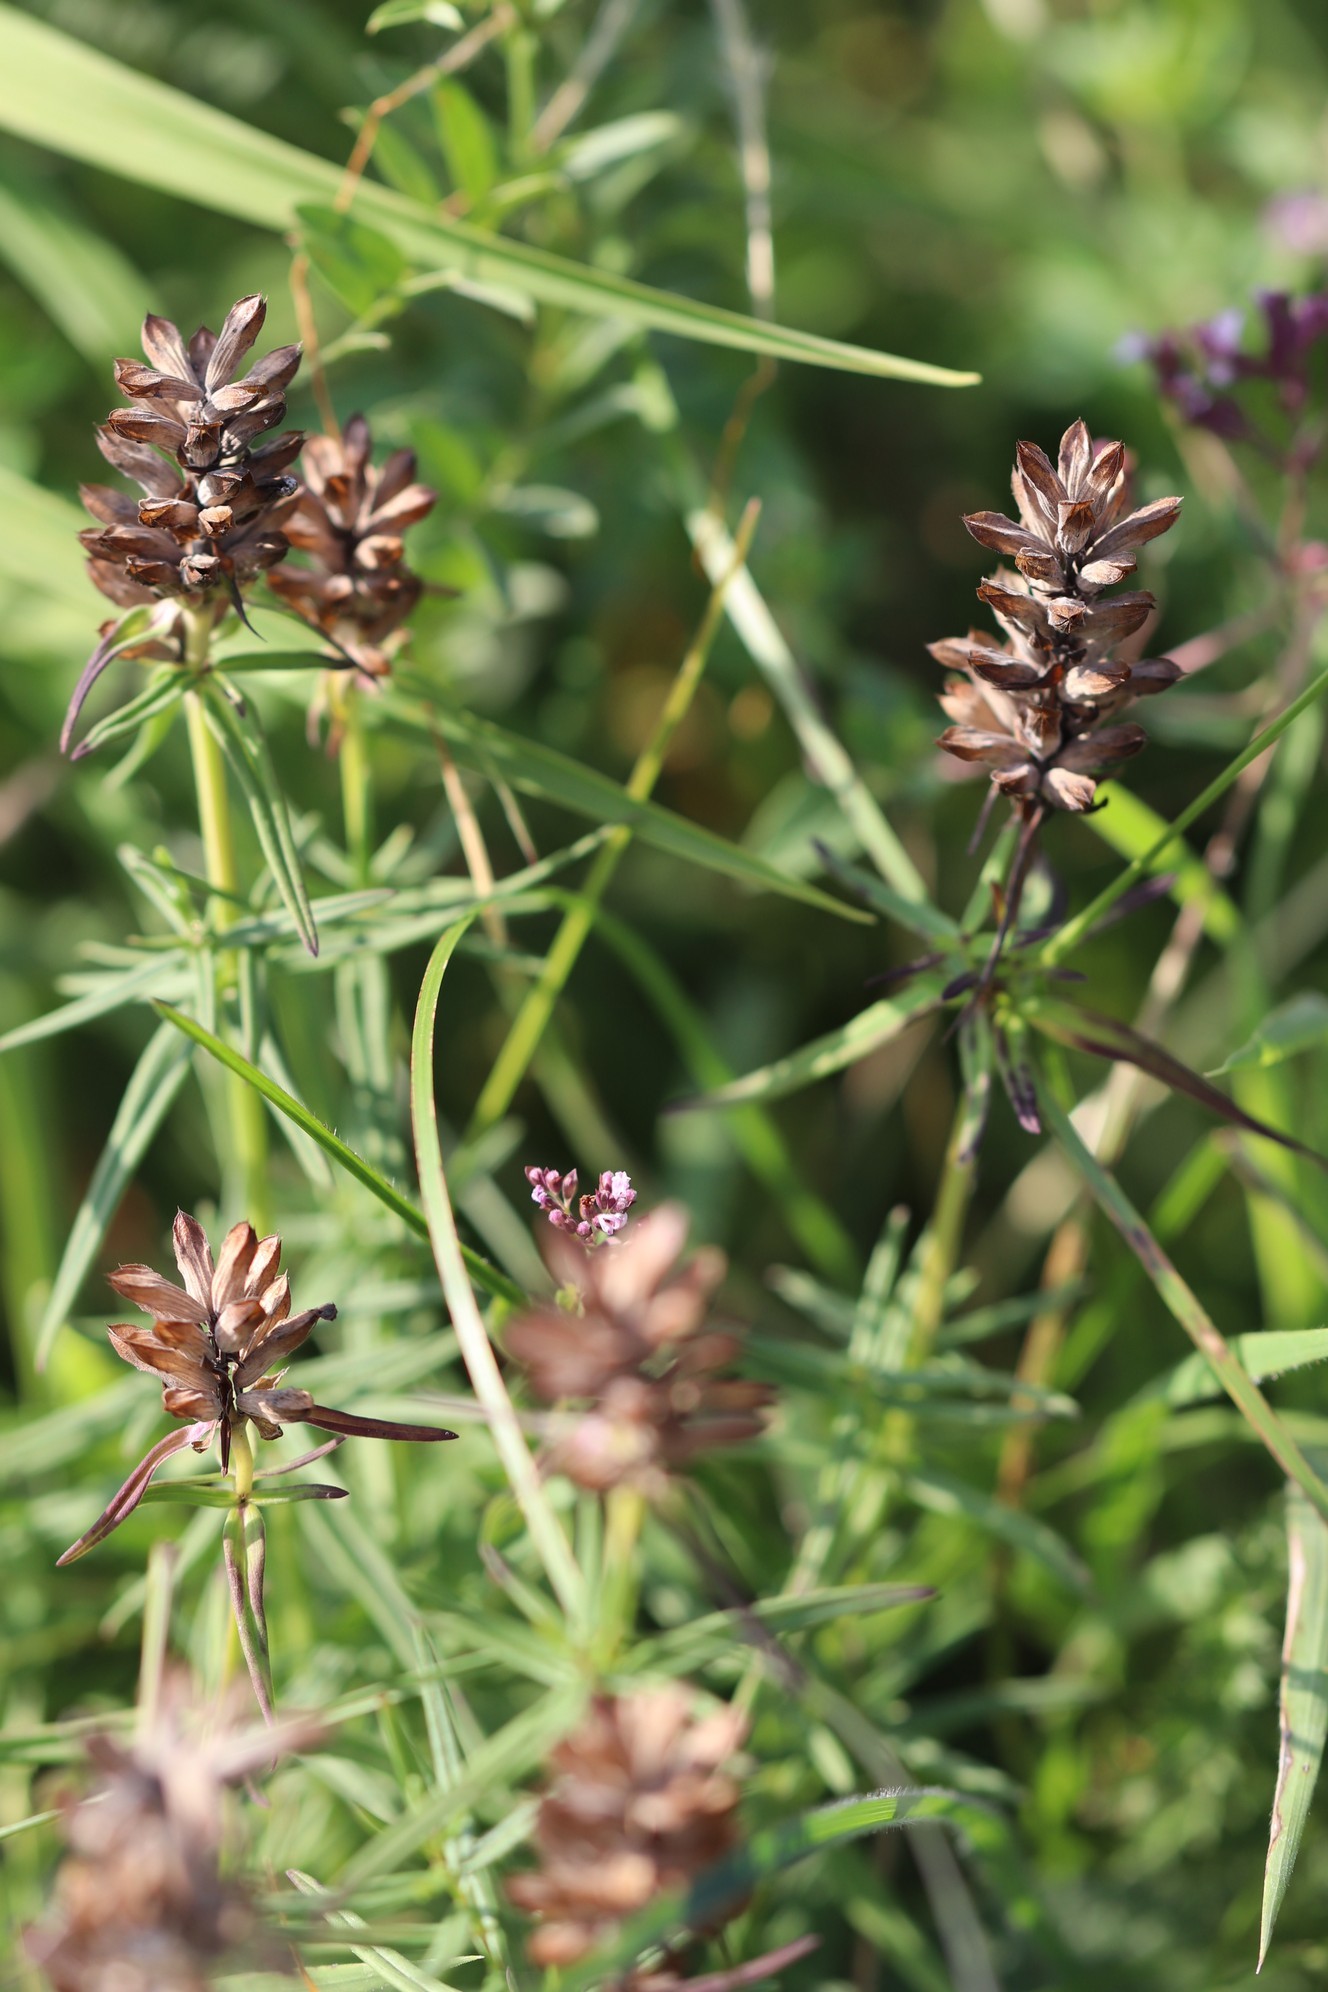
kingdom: Plantae
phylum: Tracheophyta
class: Magnoliopsida
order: Lamiales
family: Lamiaceae
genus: Dracocephalum
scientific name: Dracocephalum ruyschiana
